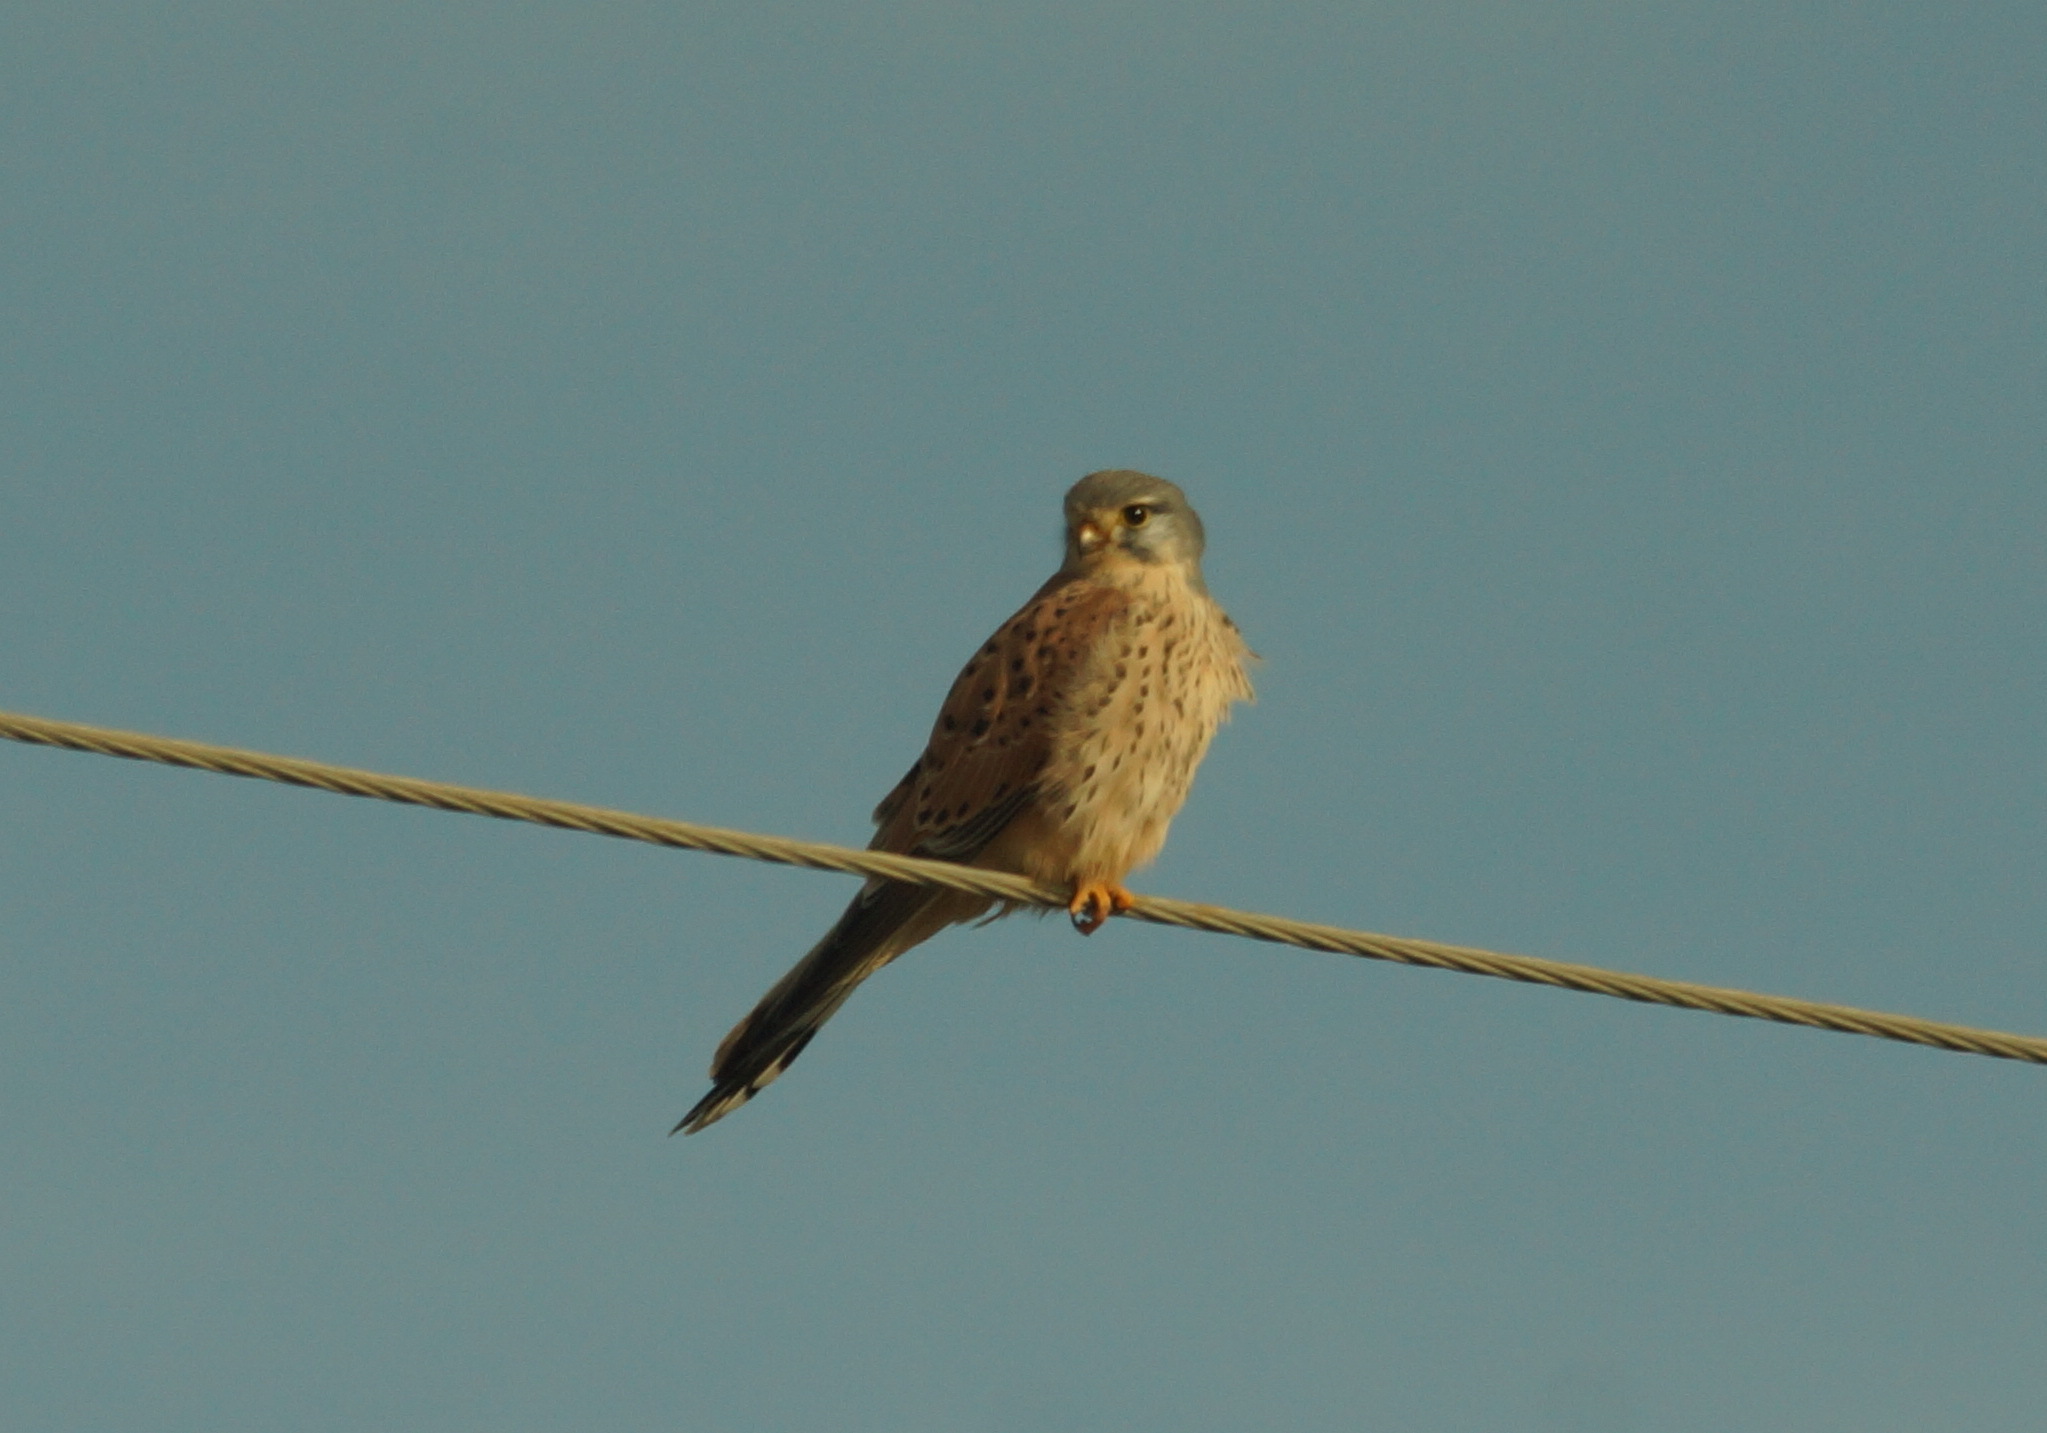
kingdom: Animalia
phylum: Chordata
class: Aves
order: Falconiformes
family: Falconidae
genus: Falco
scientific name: Falco tinnunculus
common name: Common kestrel
